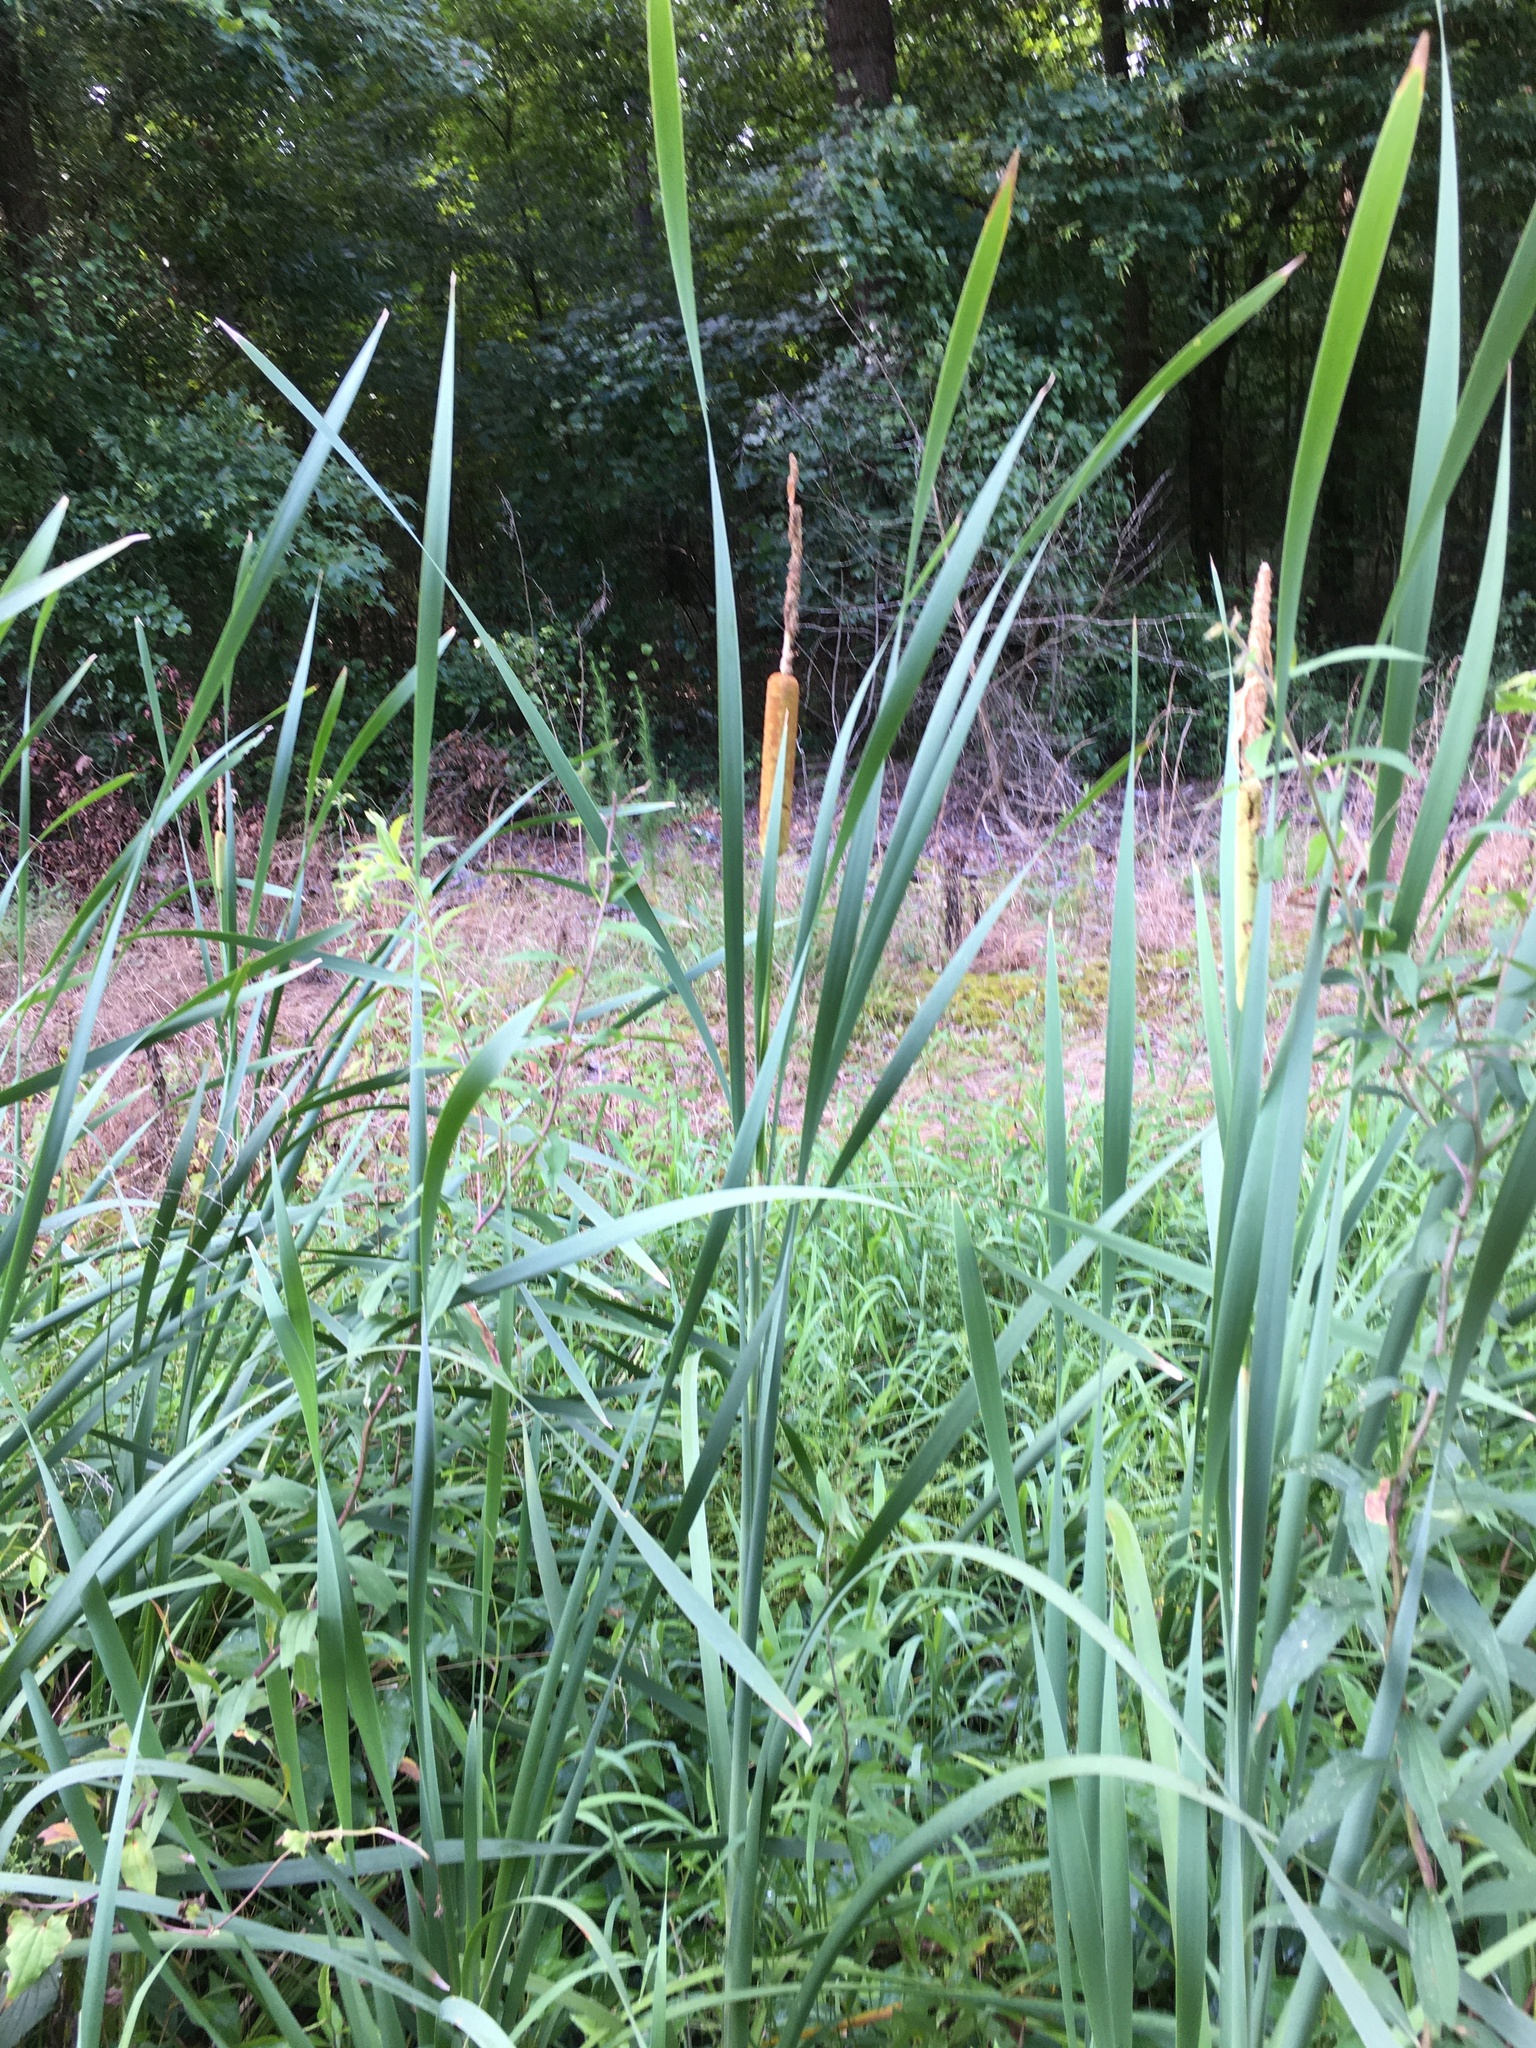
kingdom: Plantae
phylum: Tracheophyta
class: Liliopsida
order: Poales
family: Typhaceae
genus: Typha
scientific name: Typha latifolia
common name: Broadleaf cattail
